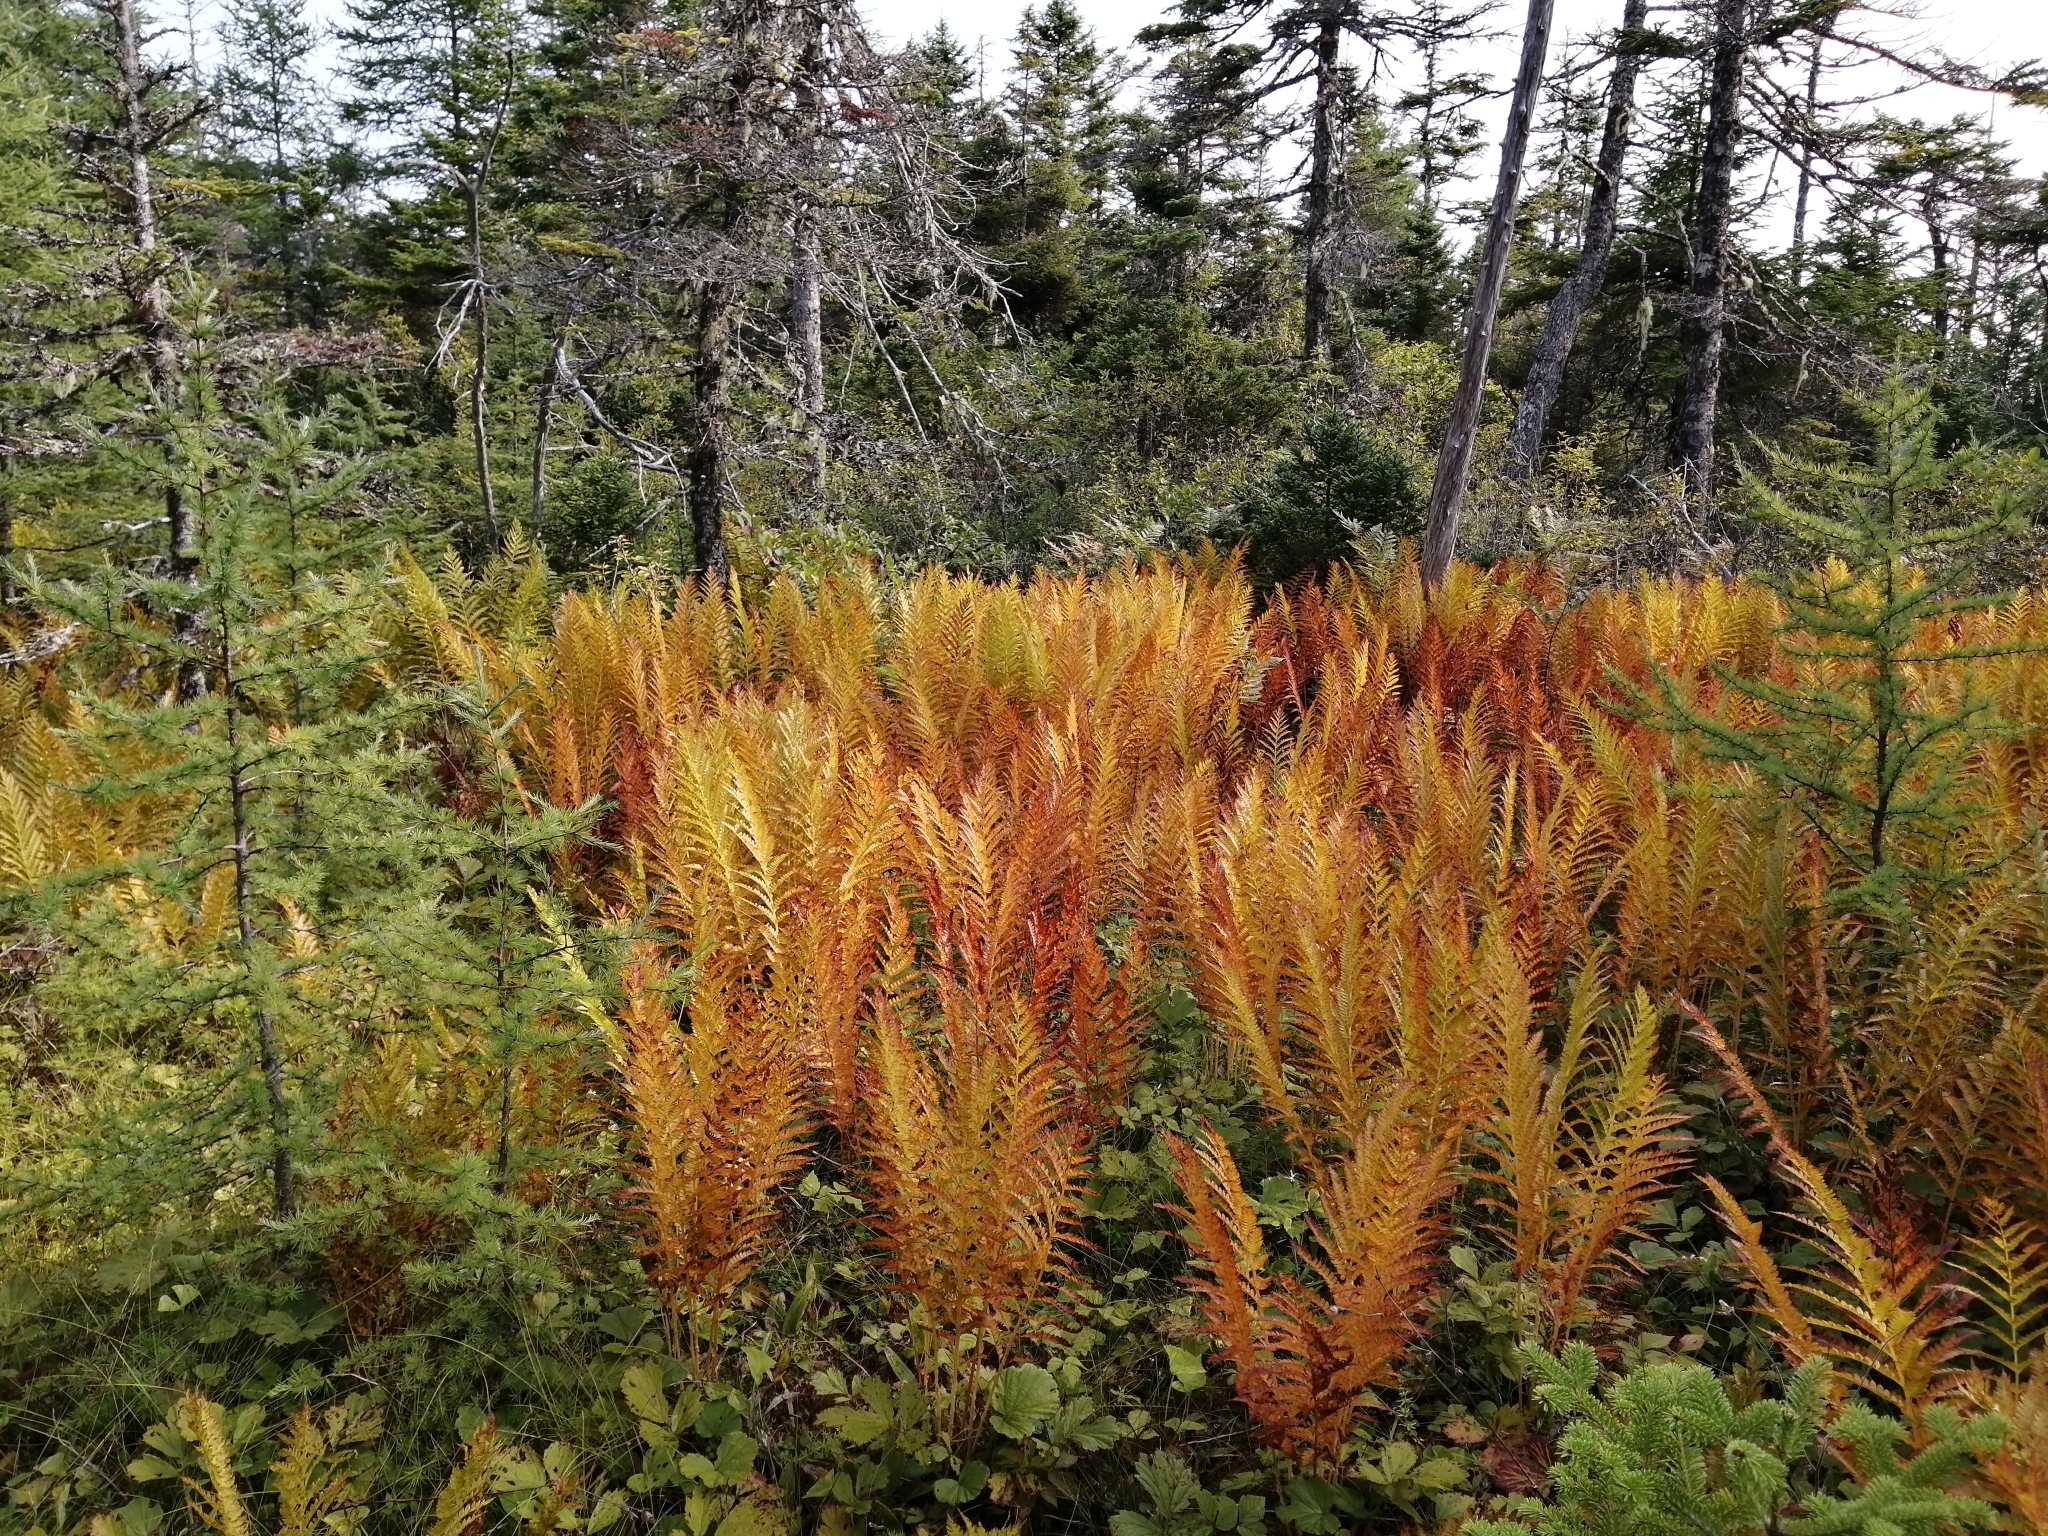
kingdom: Plantae
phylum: Tracheophyta
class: Polypodiopsida
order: Osmundales
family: Osmundaceae
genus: Osmundastrum
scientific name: Osmundastrum cinnamomeum
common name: Cinnamon fern
